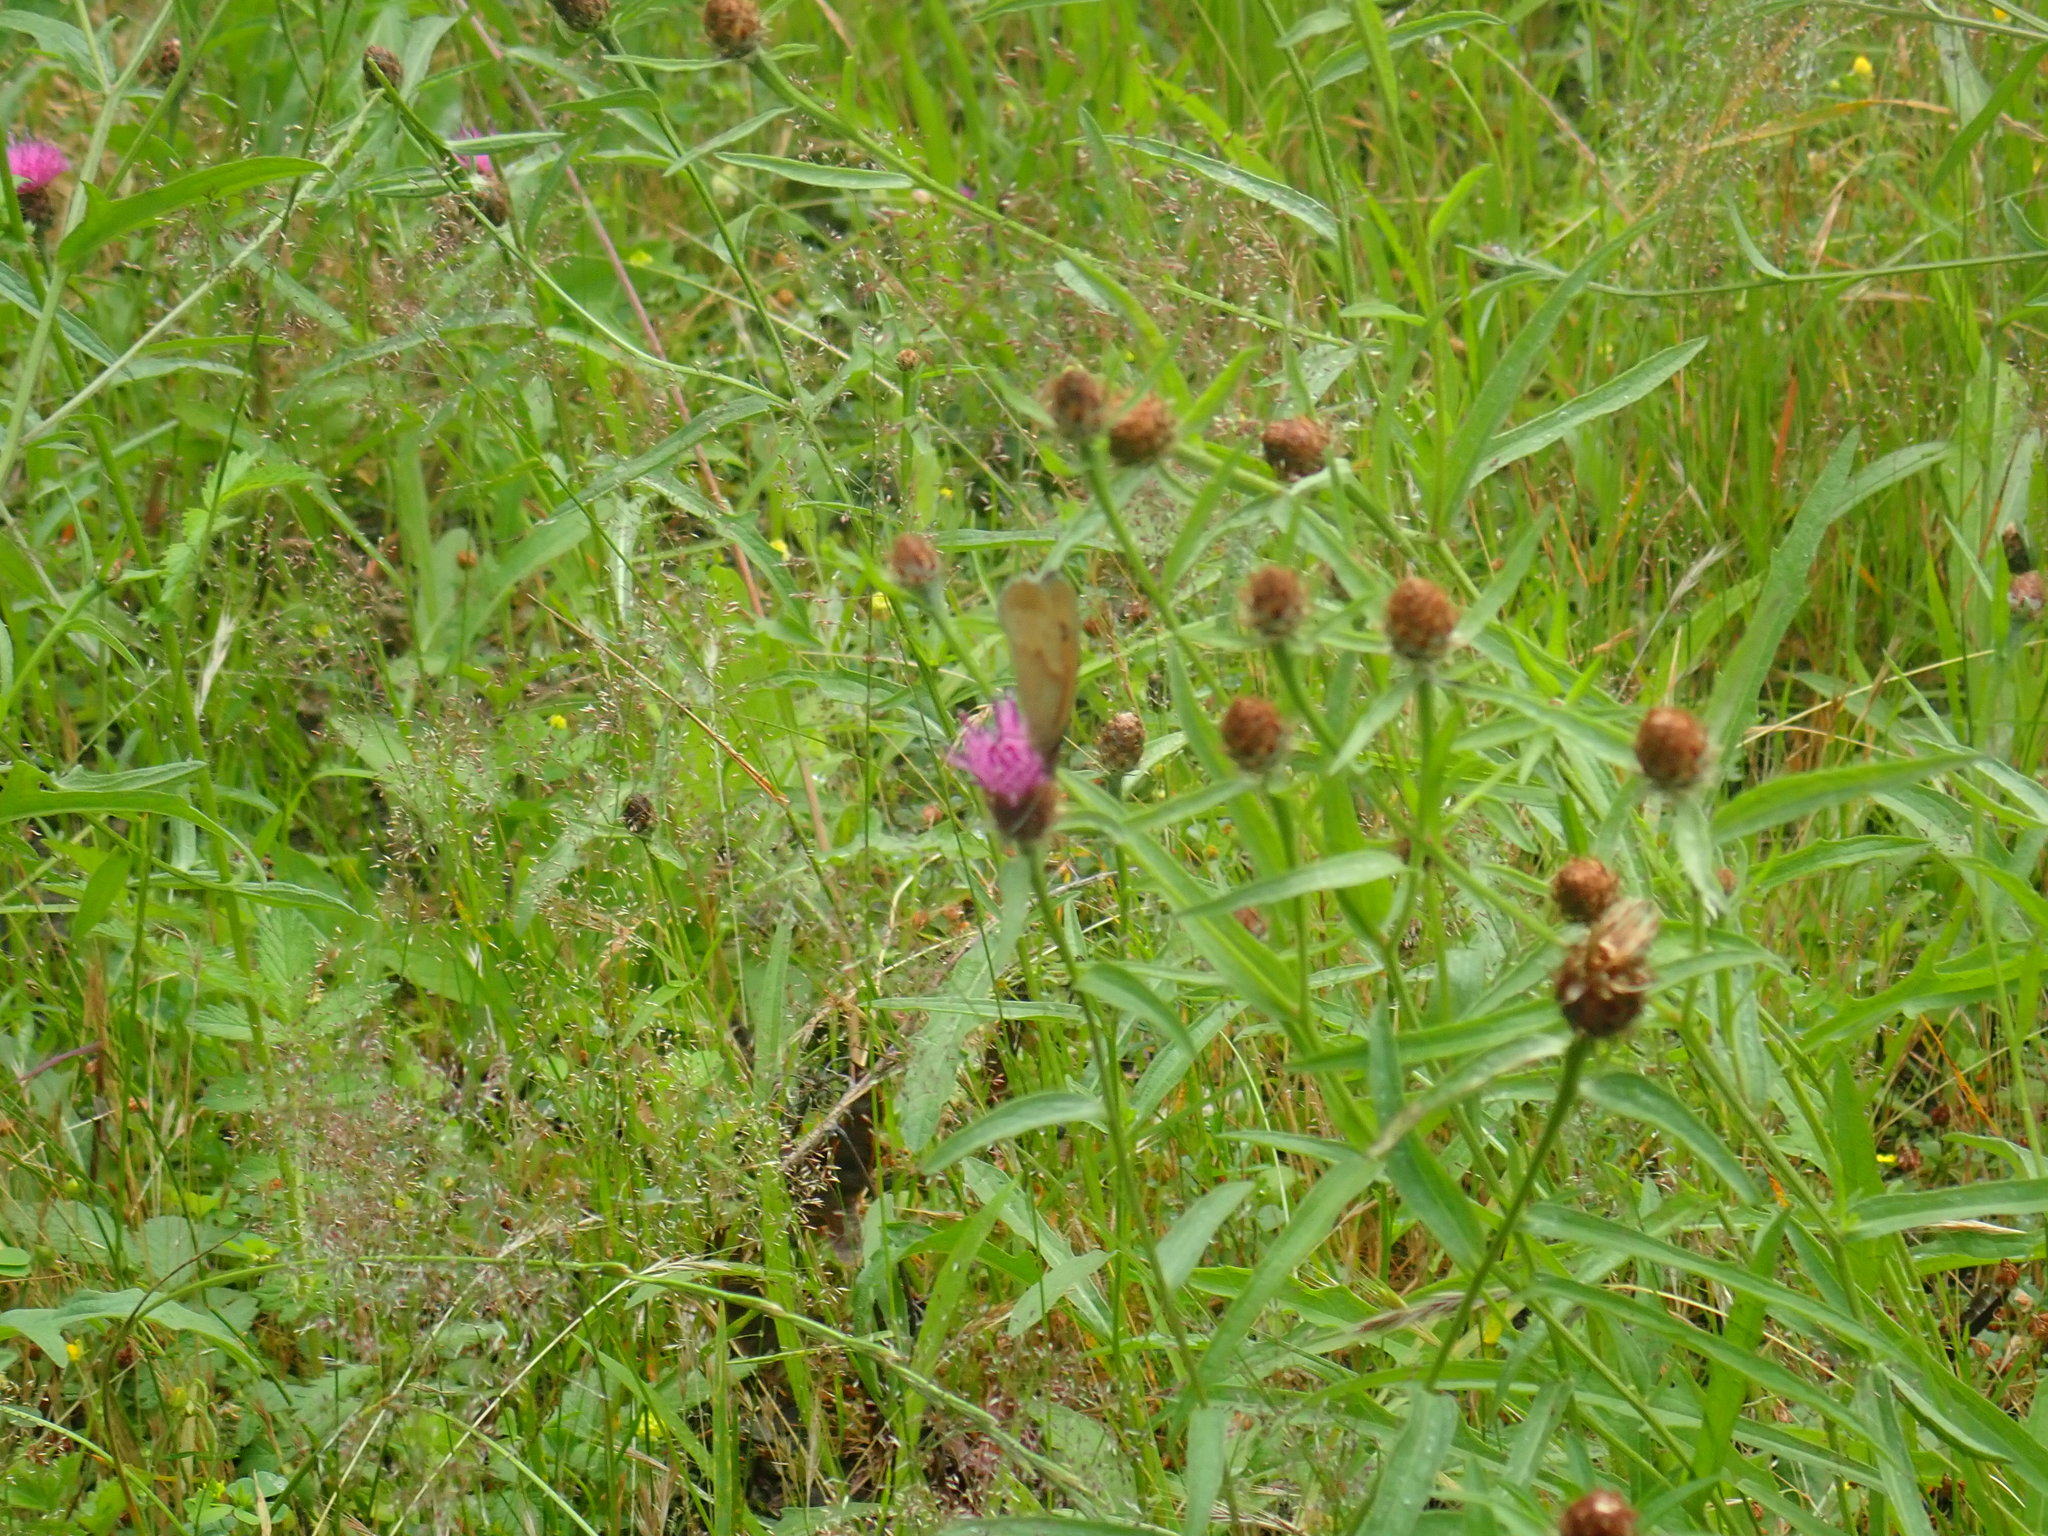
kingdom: Animalia
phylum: Arthropoda
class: Insecta
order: Lepidoptera
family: Nymphalidae
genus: Maniola
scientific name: Maniola jurtina
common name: Meadow brown
